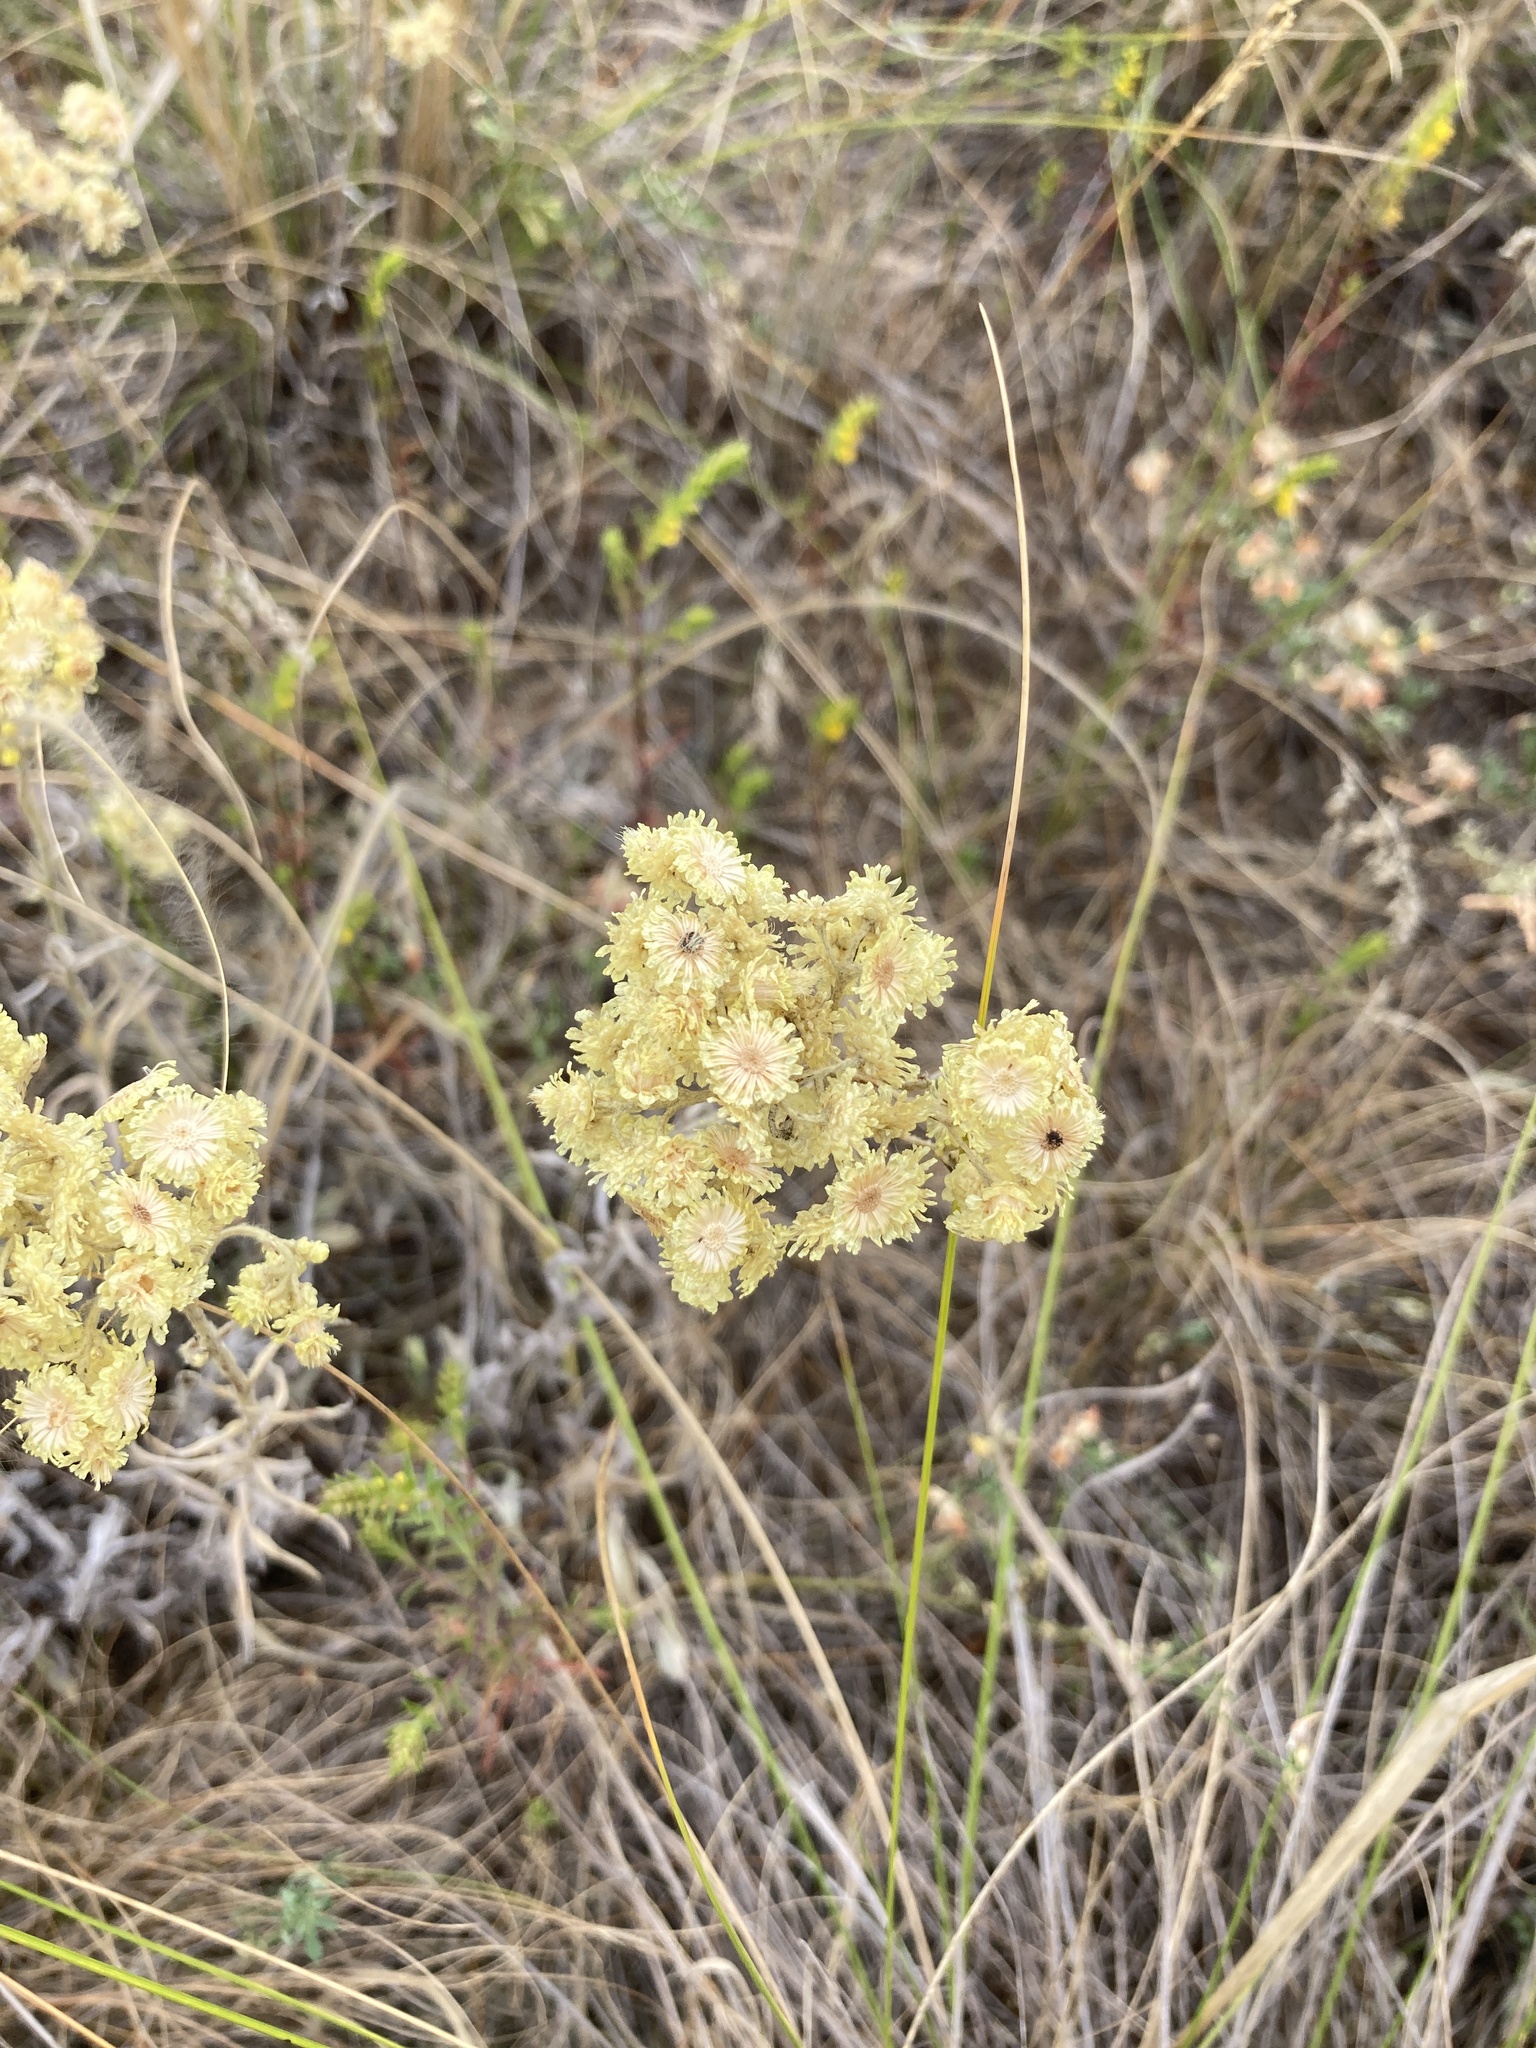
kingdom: Plantae
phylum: Tracheophyta
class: Magnoliopsida
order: Asterales
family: Asteraceae
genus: Helichrysum
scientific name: Helichrysum arenarium
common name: Strawflower
